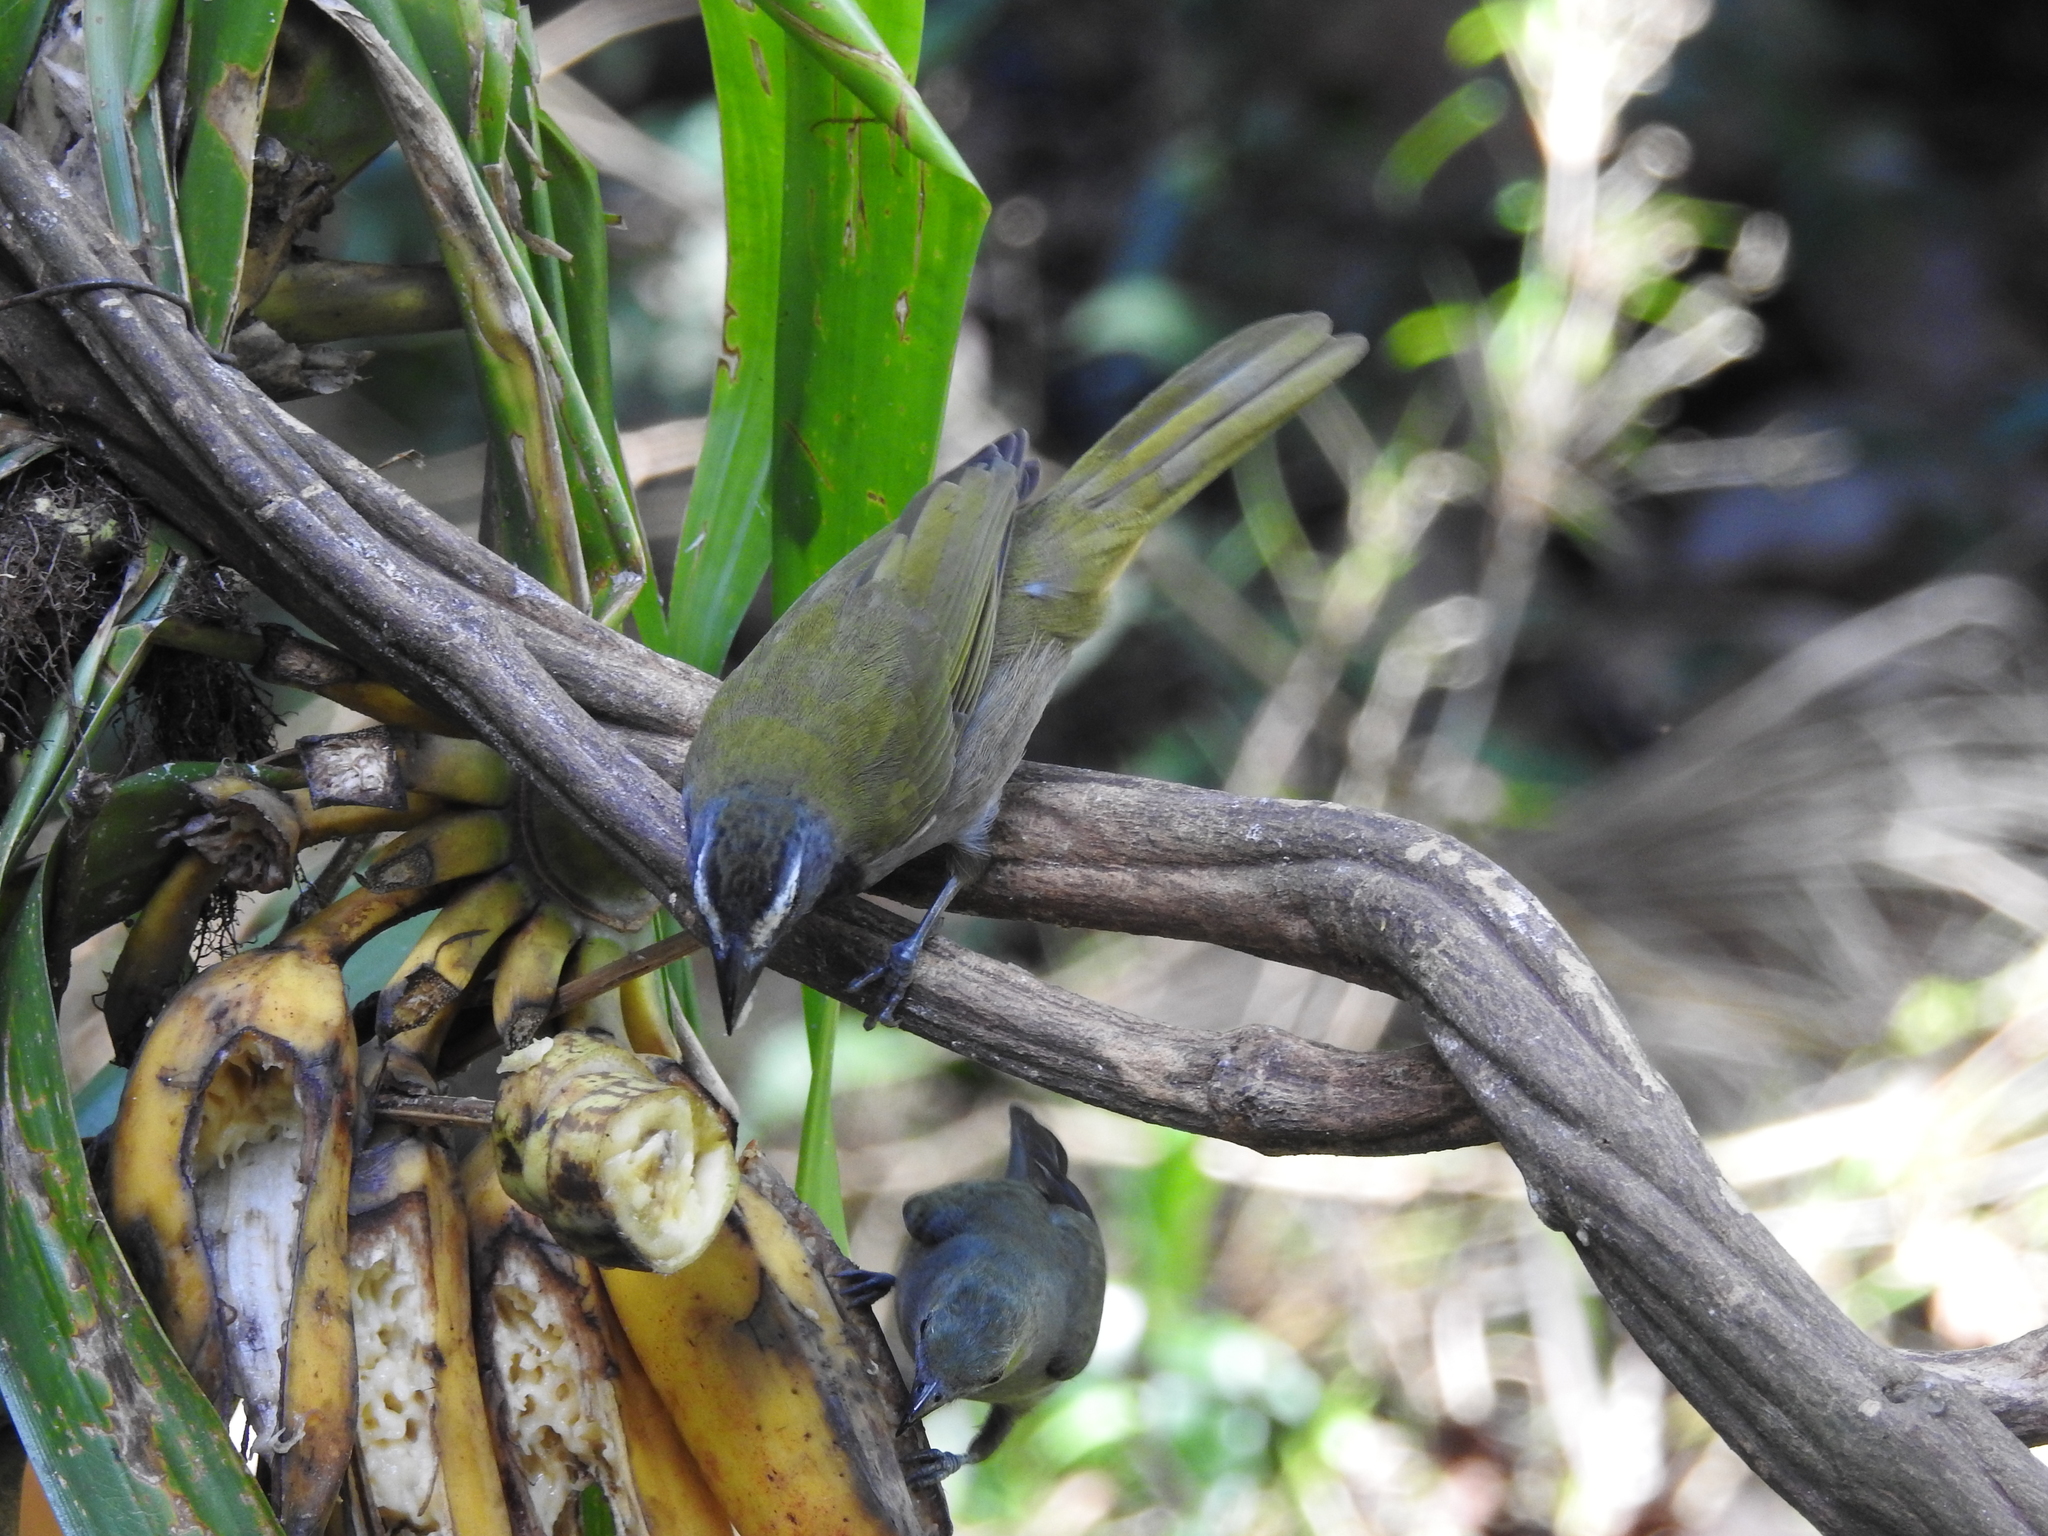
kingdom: Animalia
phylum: Chordata
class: Aves
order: Passeriformes
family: Thraupidae
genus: Saltator
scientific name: Saltator maximus
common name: Buff-throated saltator
